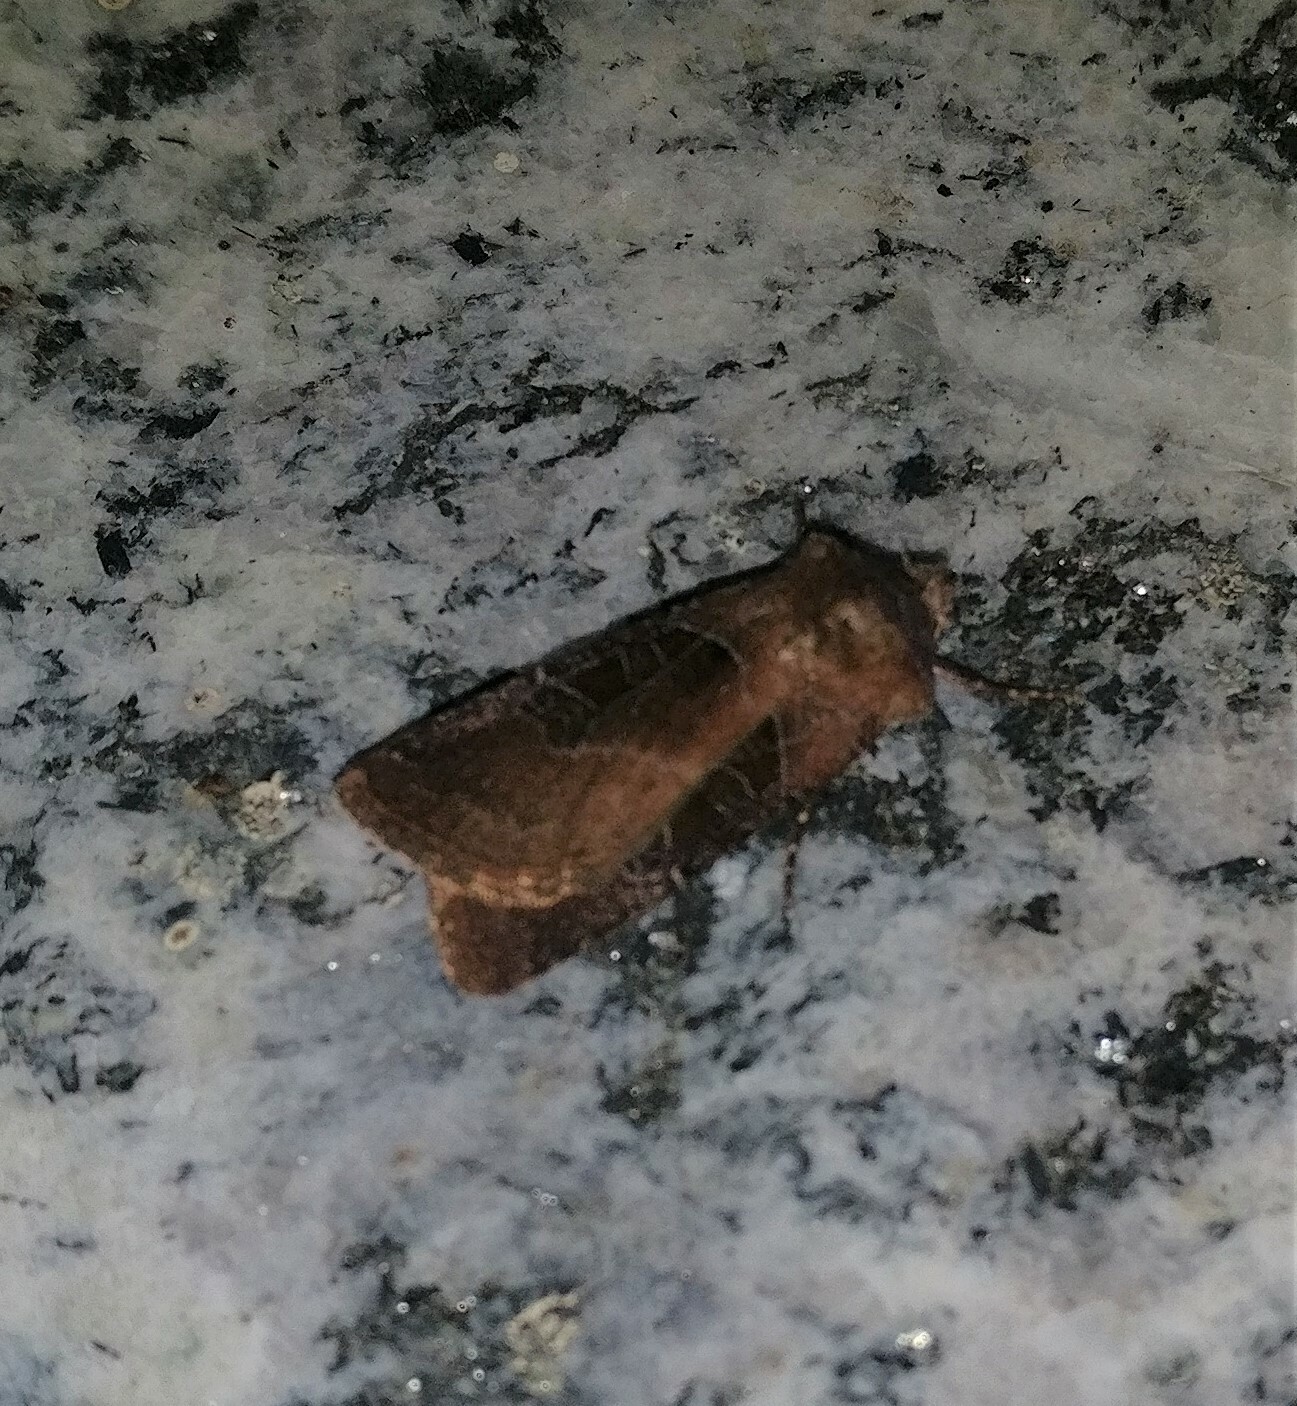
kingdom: Animalia
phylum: Arthropoda
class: Insecta
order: Lepidoptera
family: Noctuidae
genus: Chersotis
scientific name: Chersotis cuprea
